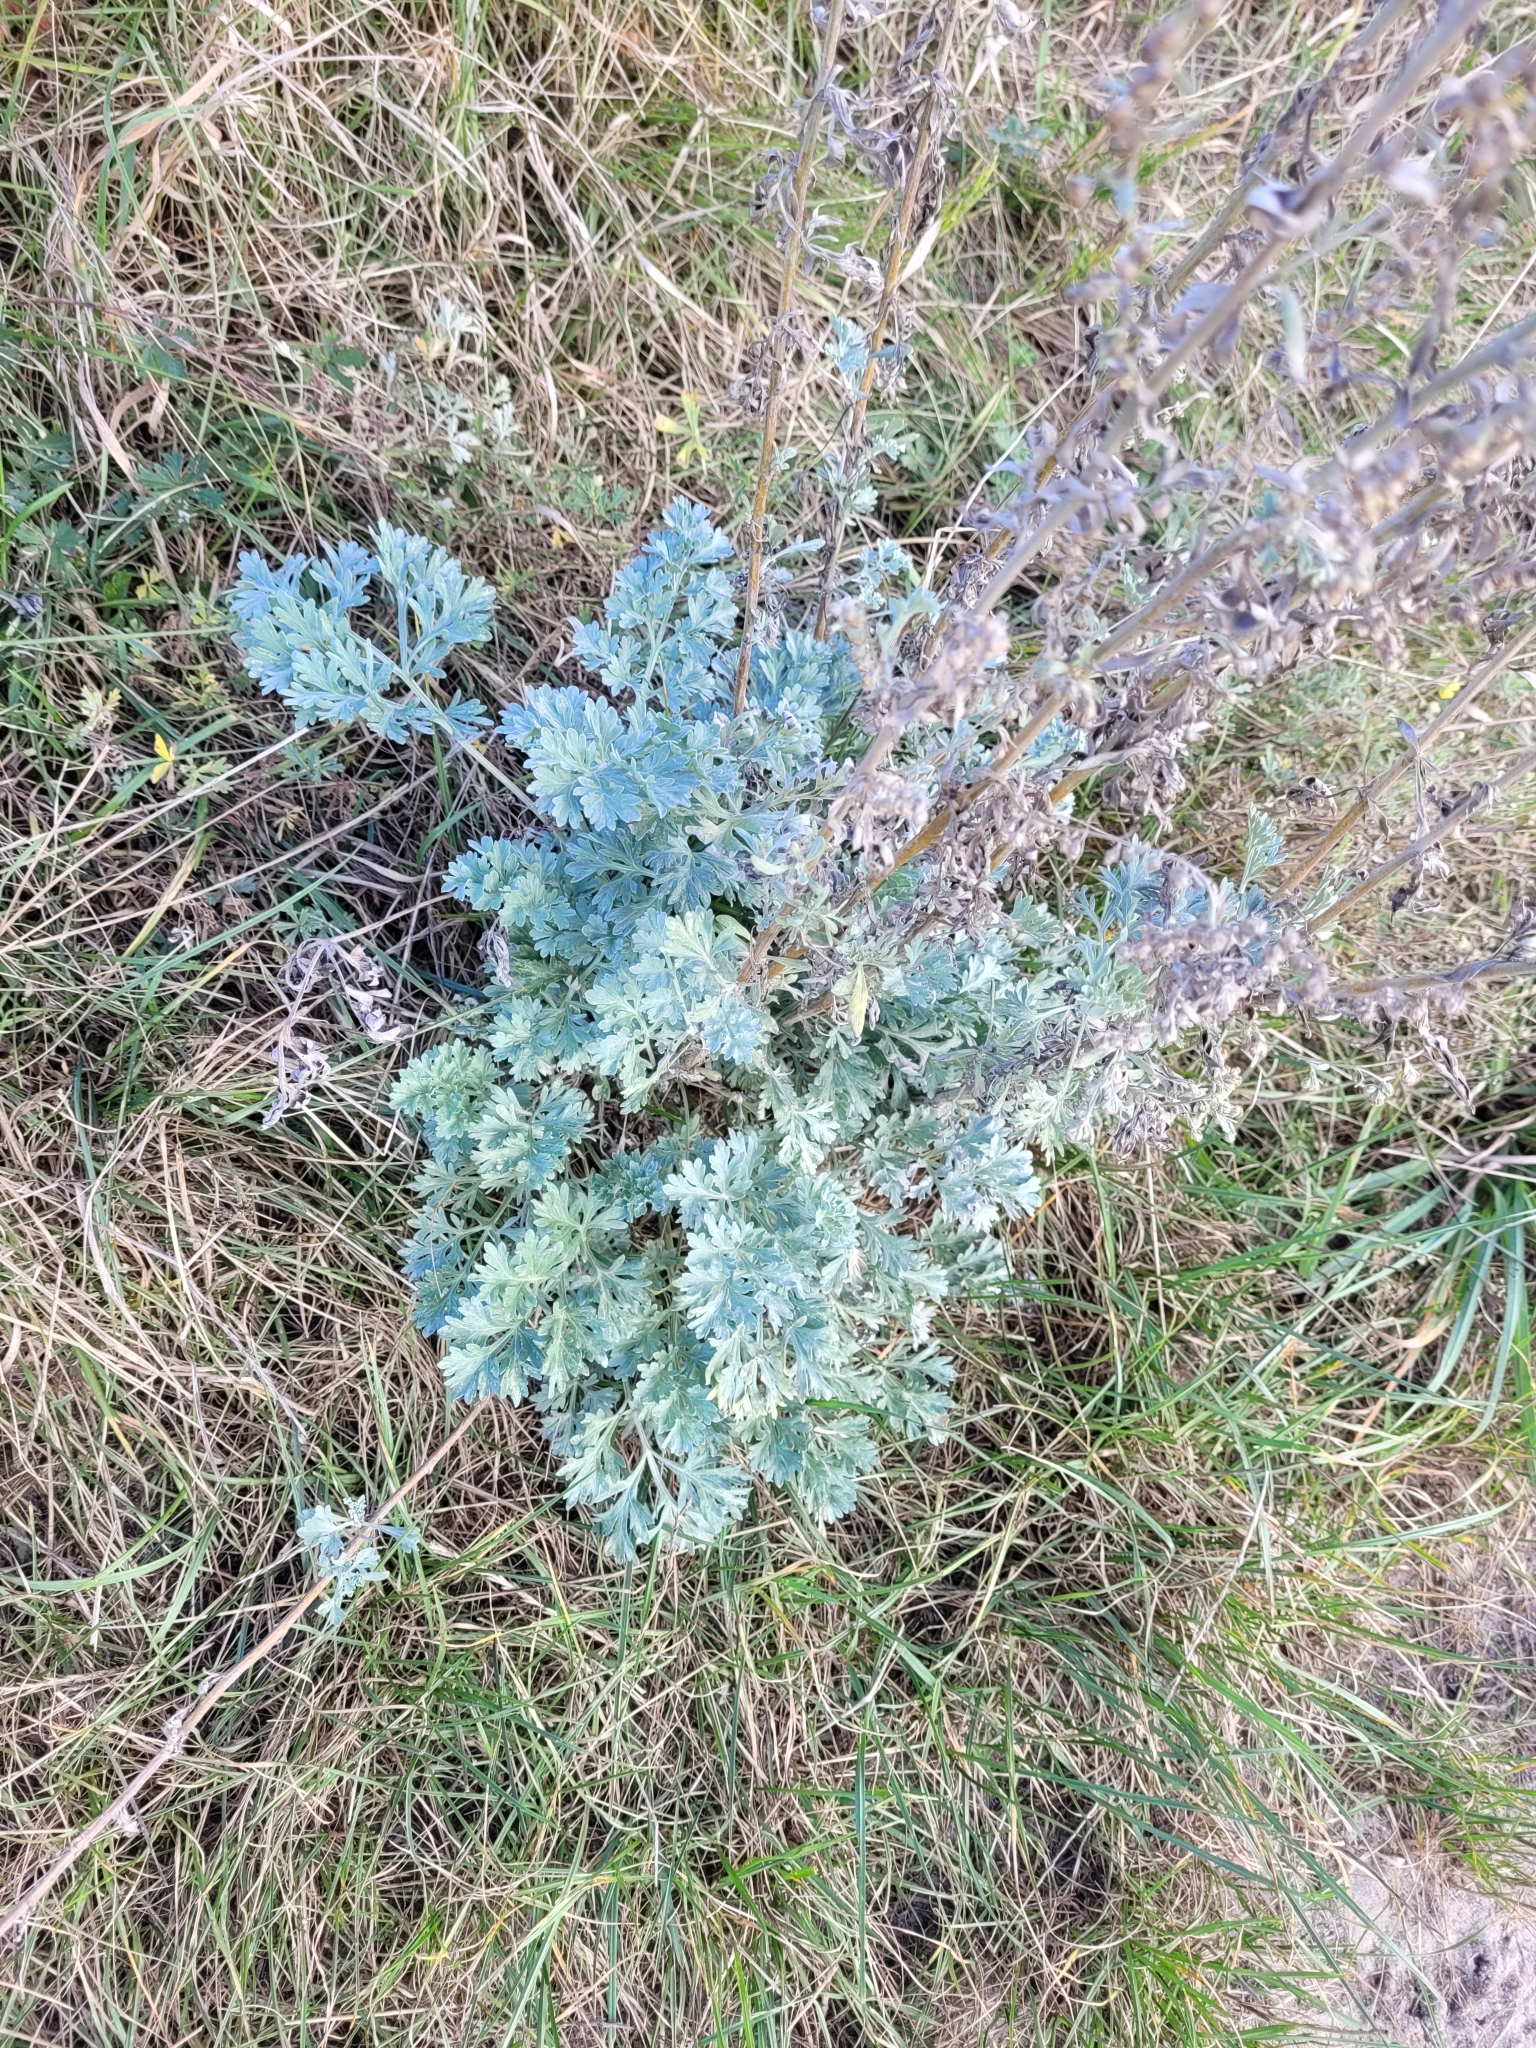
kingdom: Plantae
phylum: Tracheophyta
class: Magnoliopsida
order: Asterales
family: Asteraceae
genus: Artemisia
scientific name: Artemisia absinthium
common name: Wormwood
